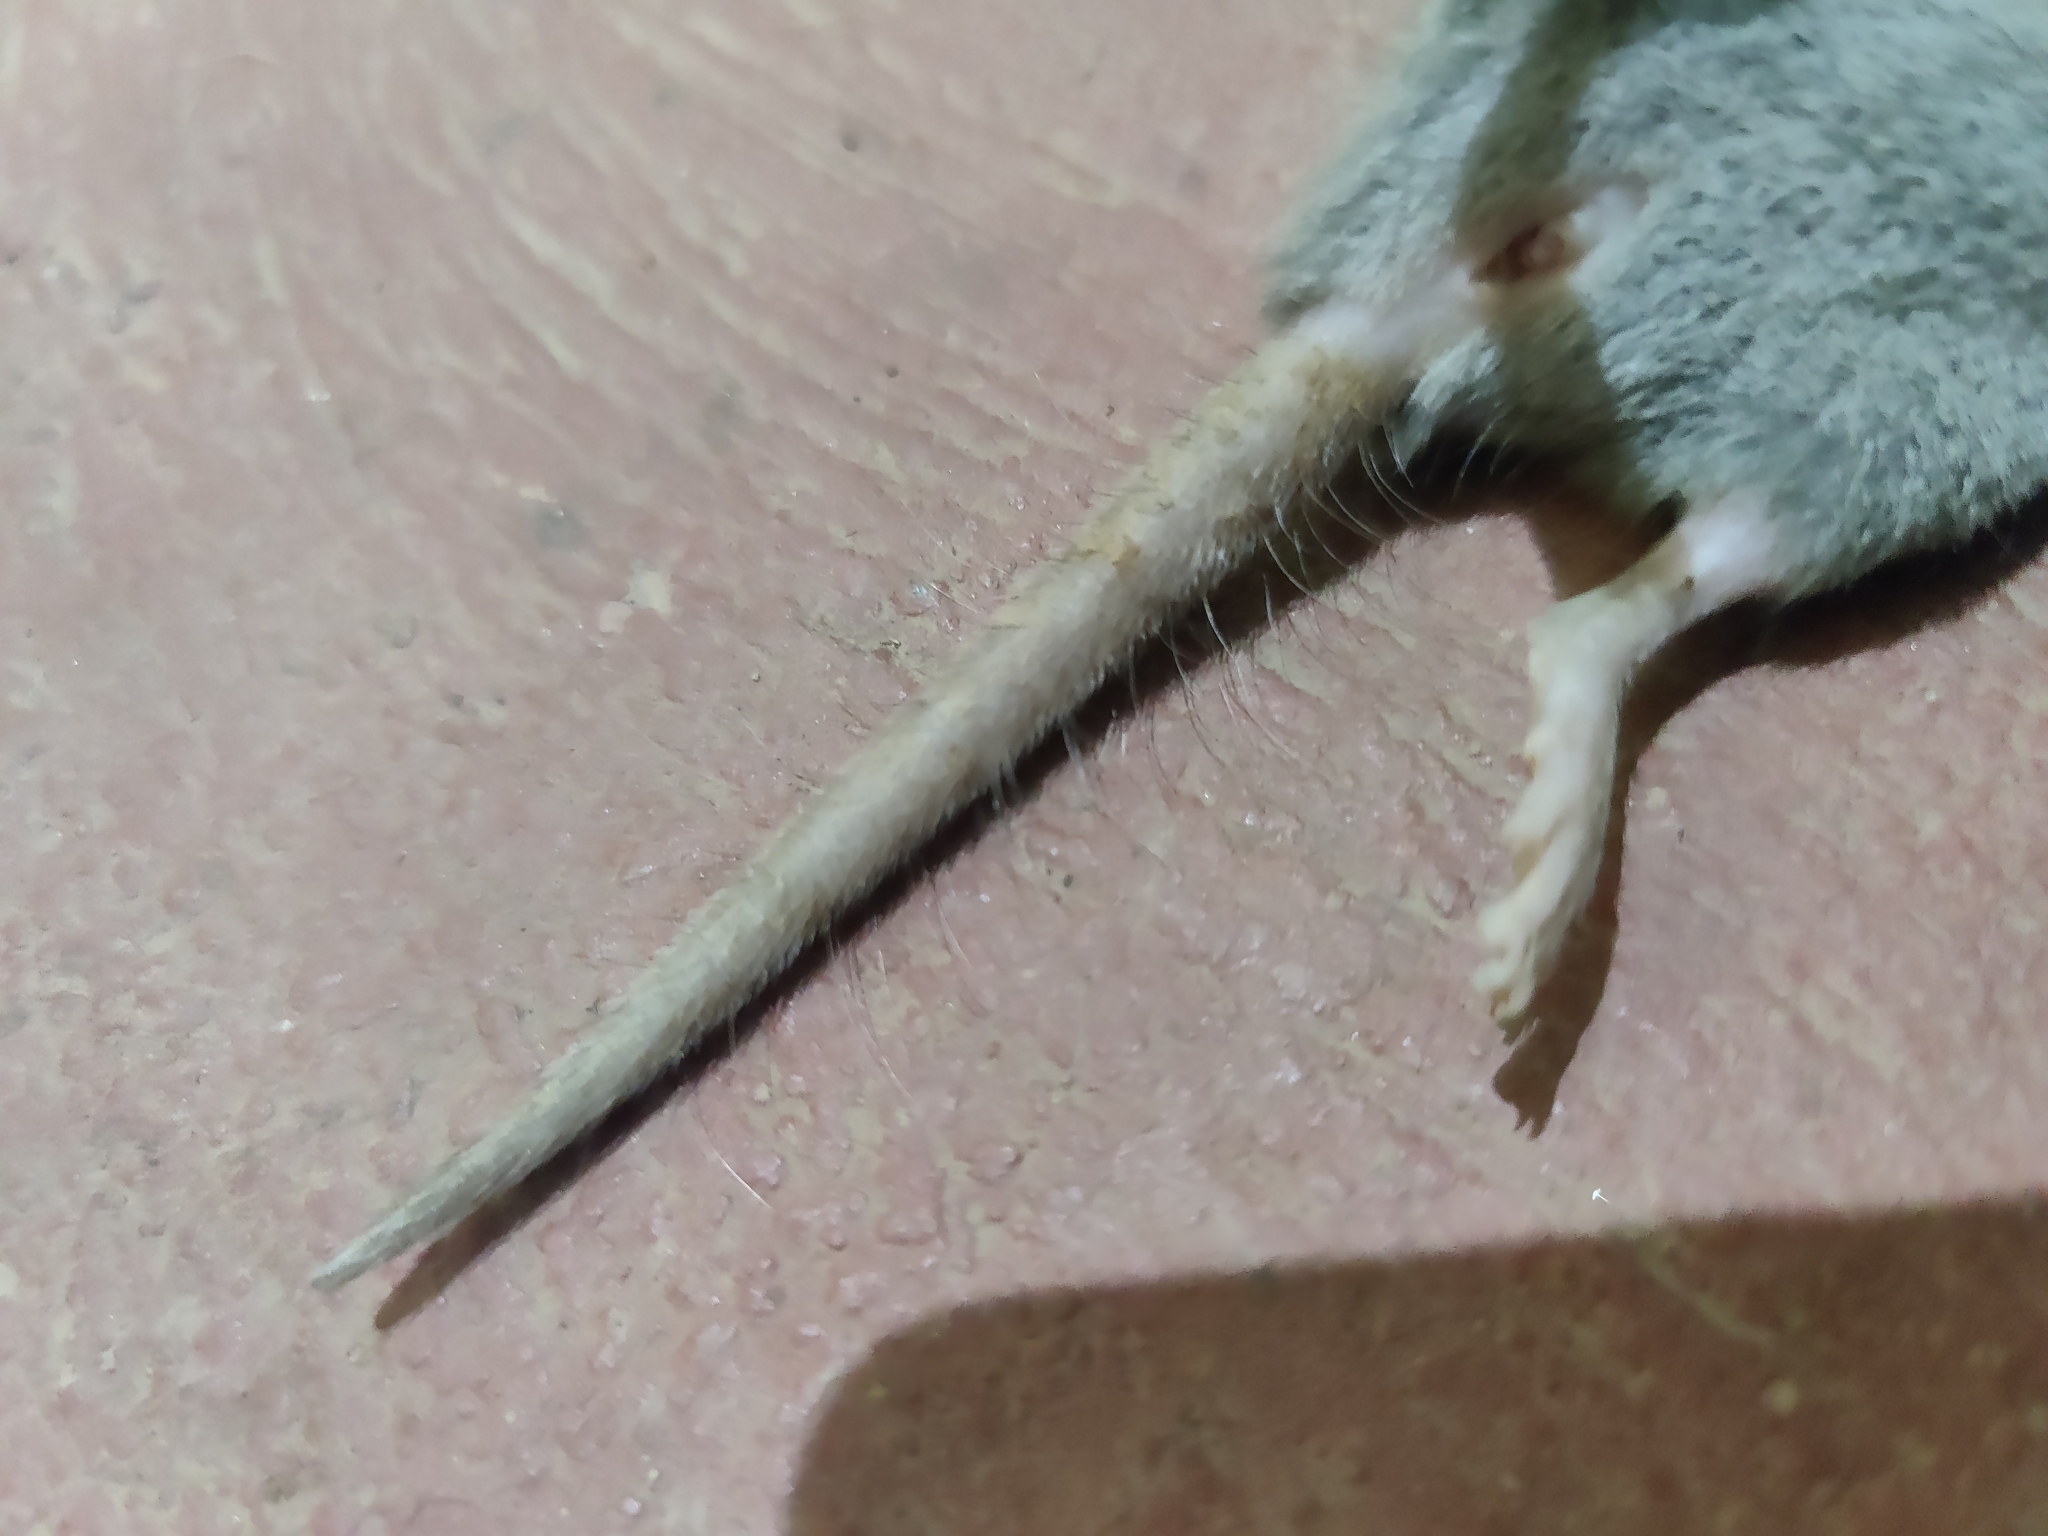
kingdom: Animalia
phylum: Chordata
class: Mammalia
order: Soricomorpha
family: Soricidae
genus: Suncus
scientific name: Suncus murinus
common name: Asian house shrew
